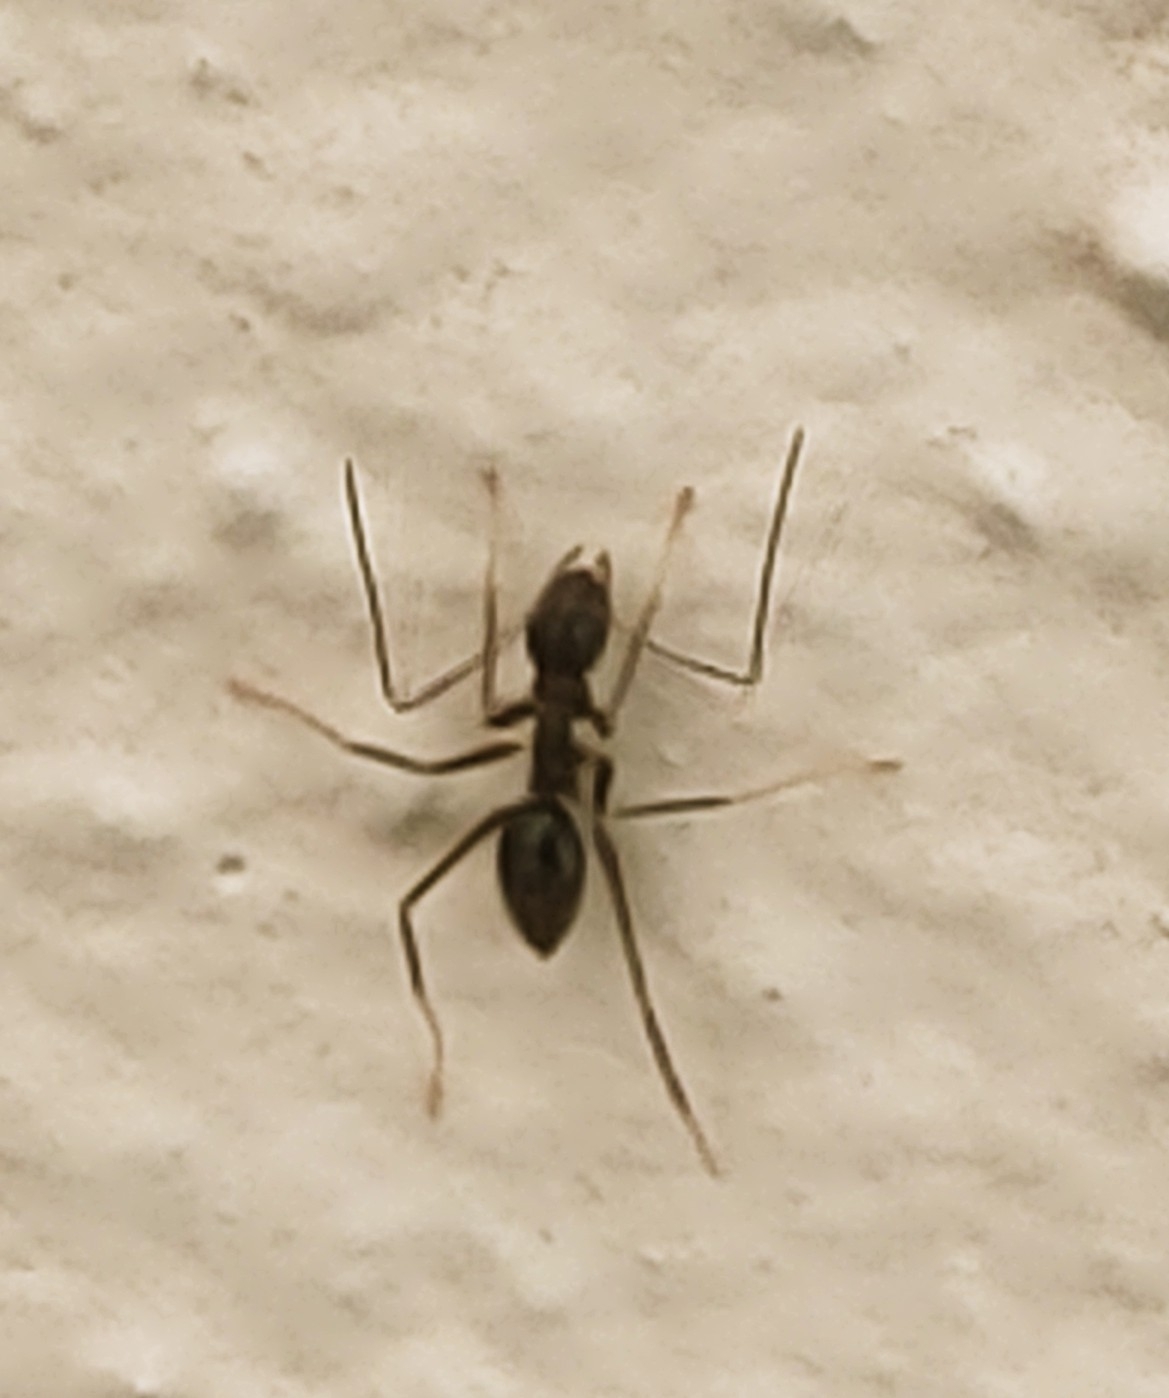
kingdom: Animalia
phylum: Arthropoda
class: Insecta
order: Hymenoptera
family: Formicidae
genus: Paratrechina
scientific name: Paratrechina longicornis
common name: Longhorned crazy ant
